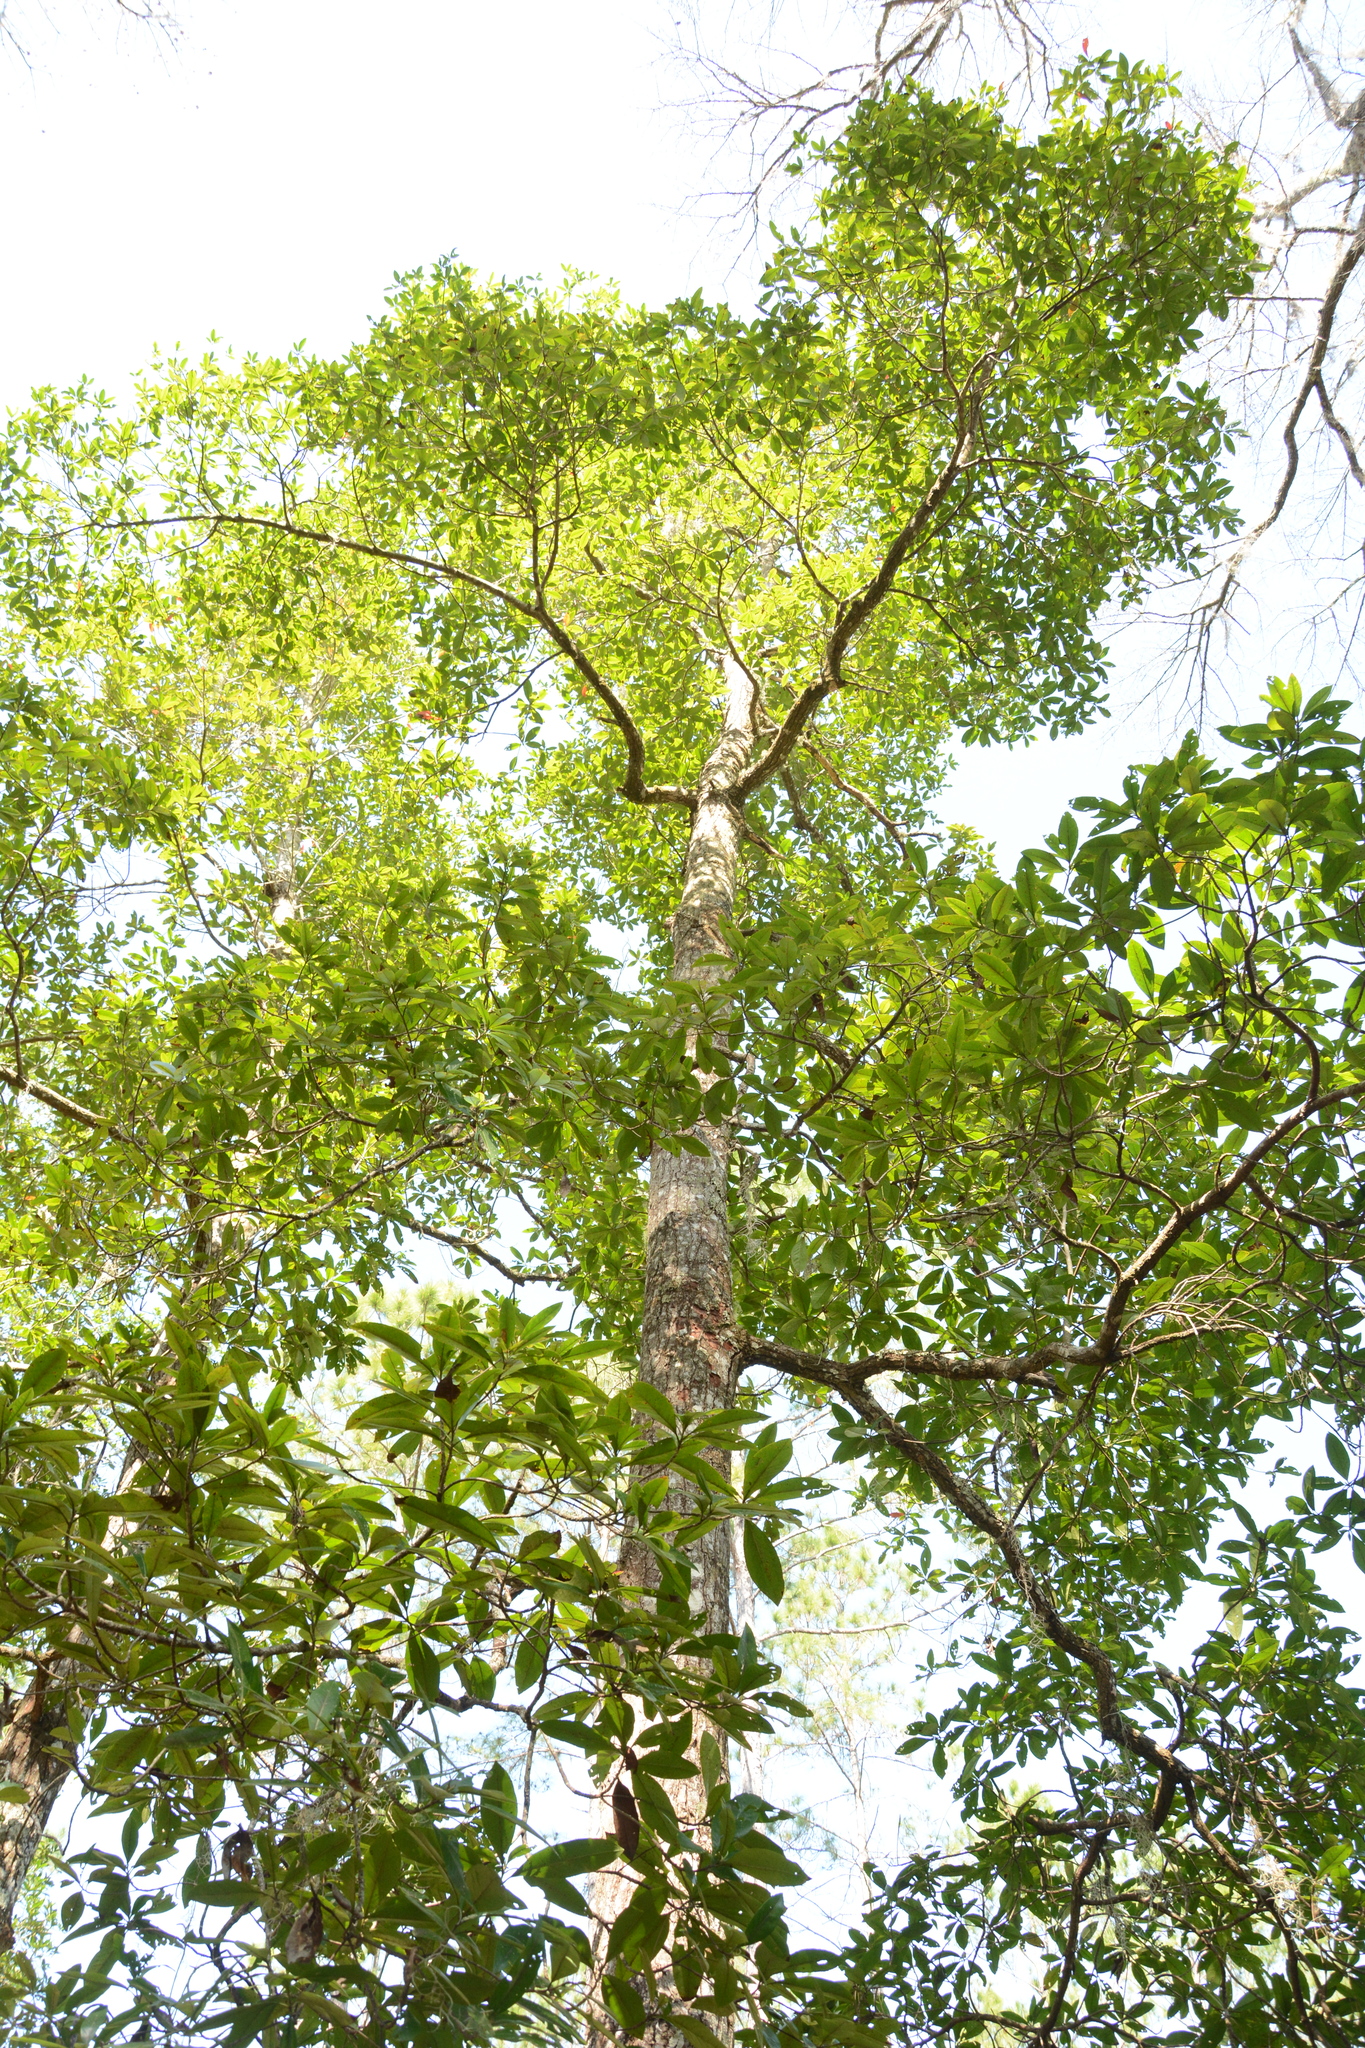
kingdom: Plantae
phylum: Tracheophyta
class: Magnoliopsida
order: Ericales
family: Theaceae
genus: Gordonia
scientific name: Gordonia lasianthus
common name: Loblolly bay
